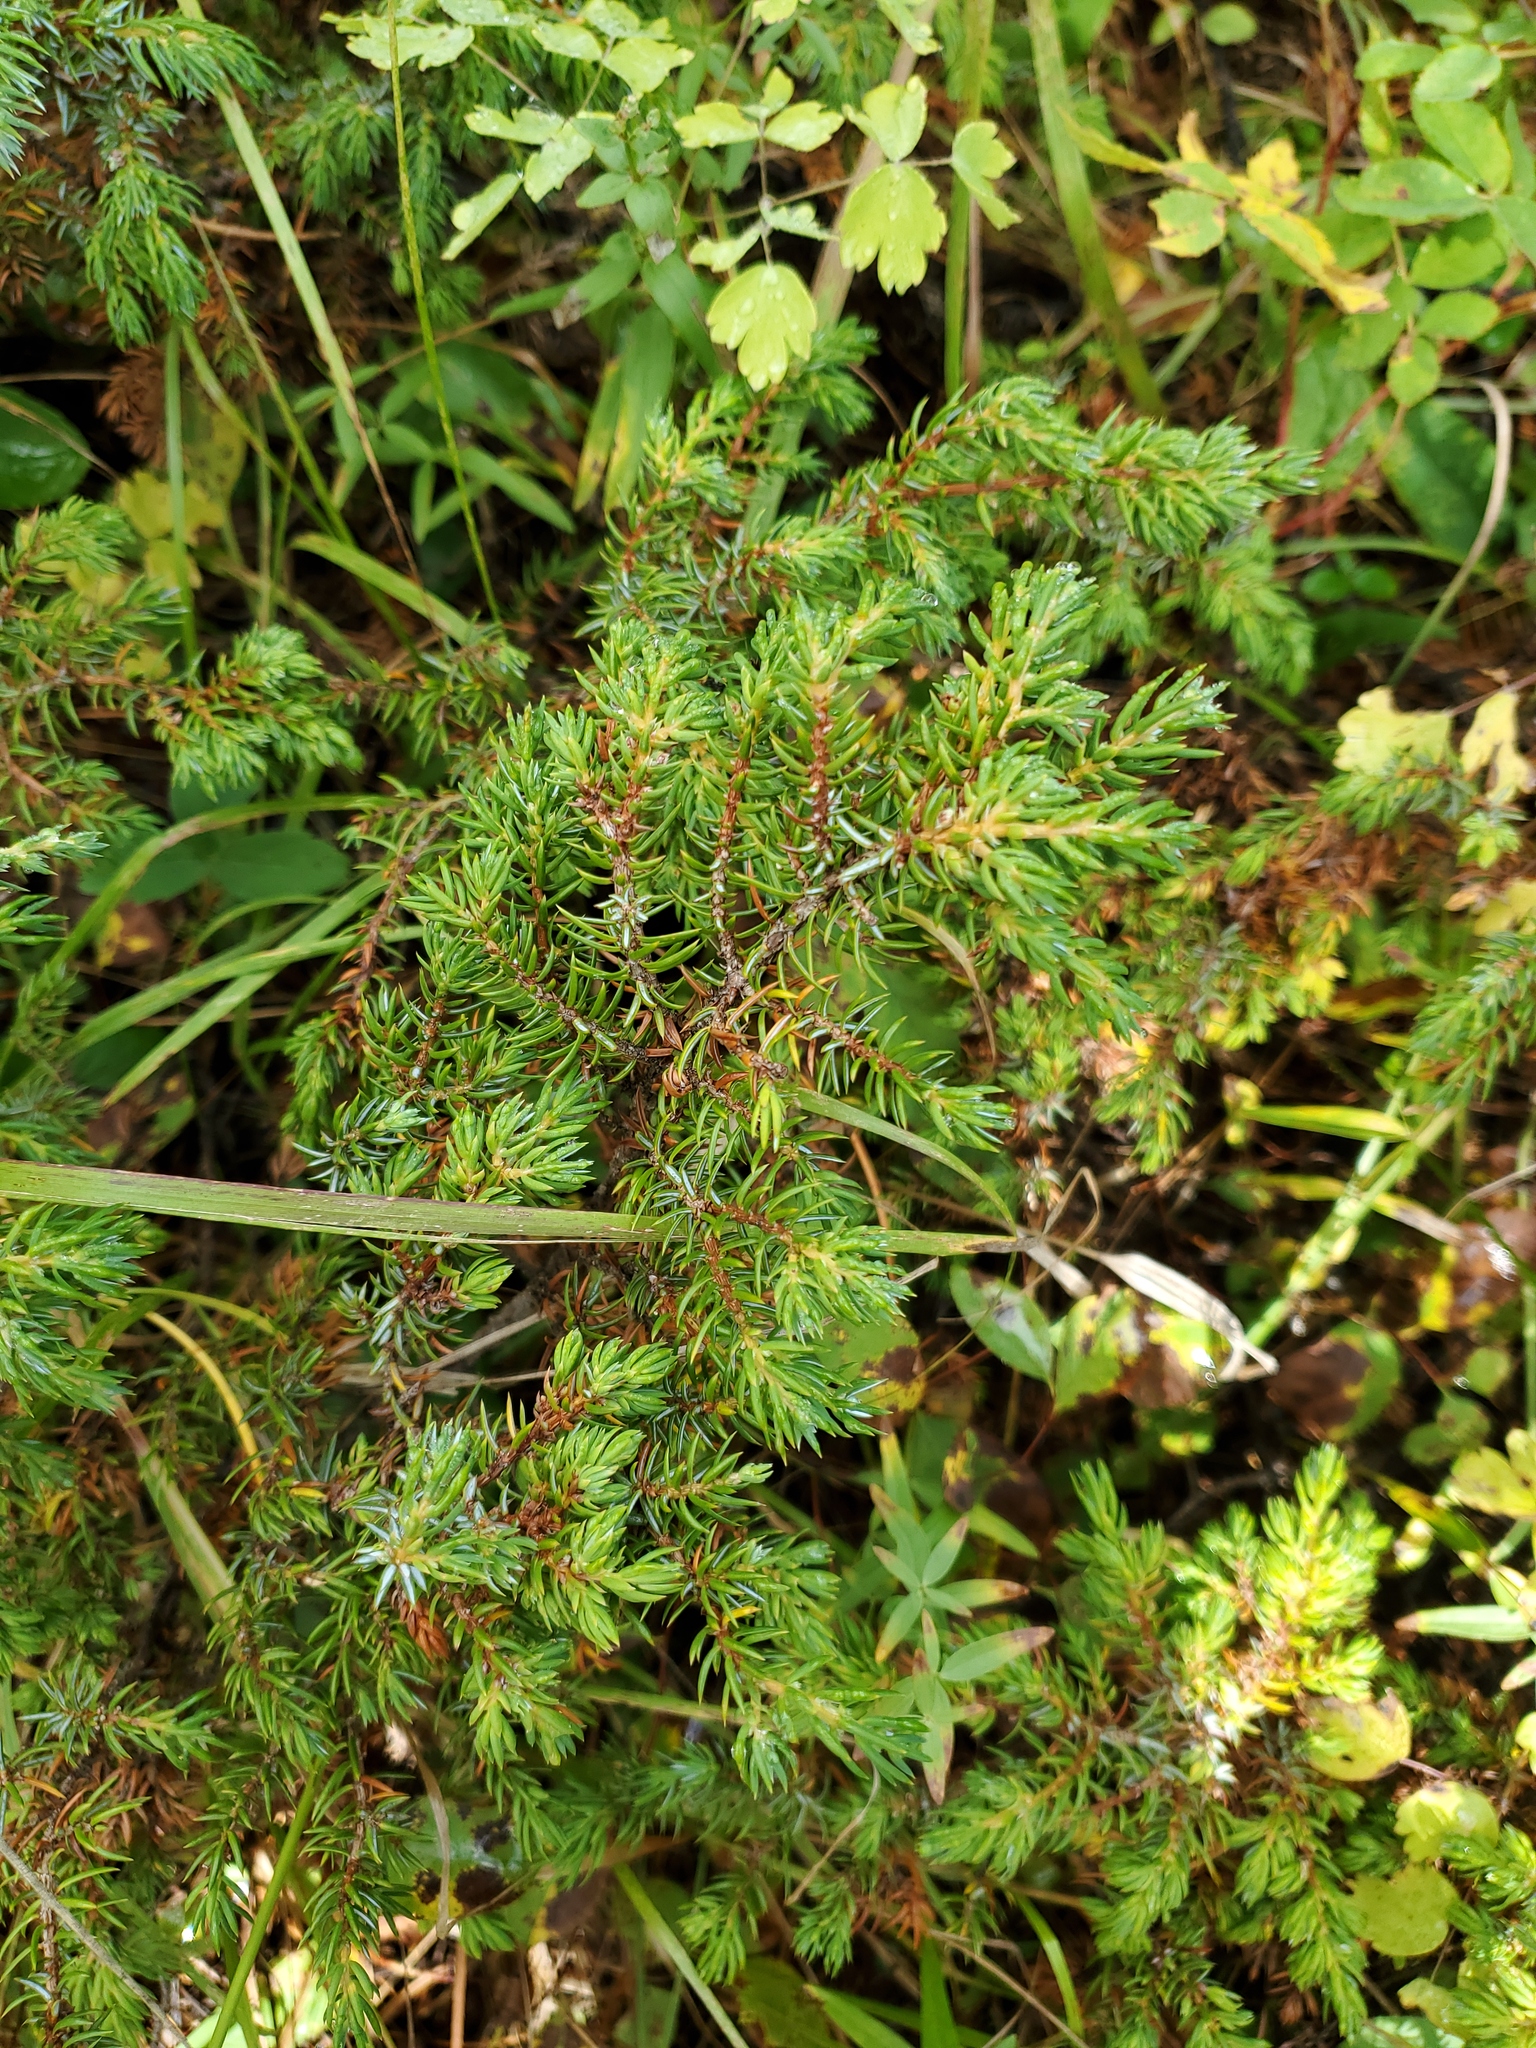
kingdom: Plantae
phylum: Tracheophyta
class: Pinopsida
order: Pinales
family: Cupressaceae
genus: Juniperus
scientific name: Juniperus communis
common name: Common juniper
